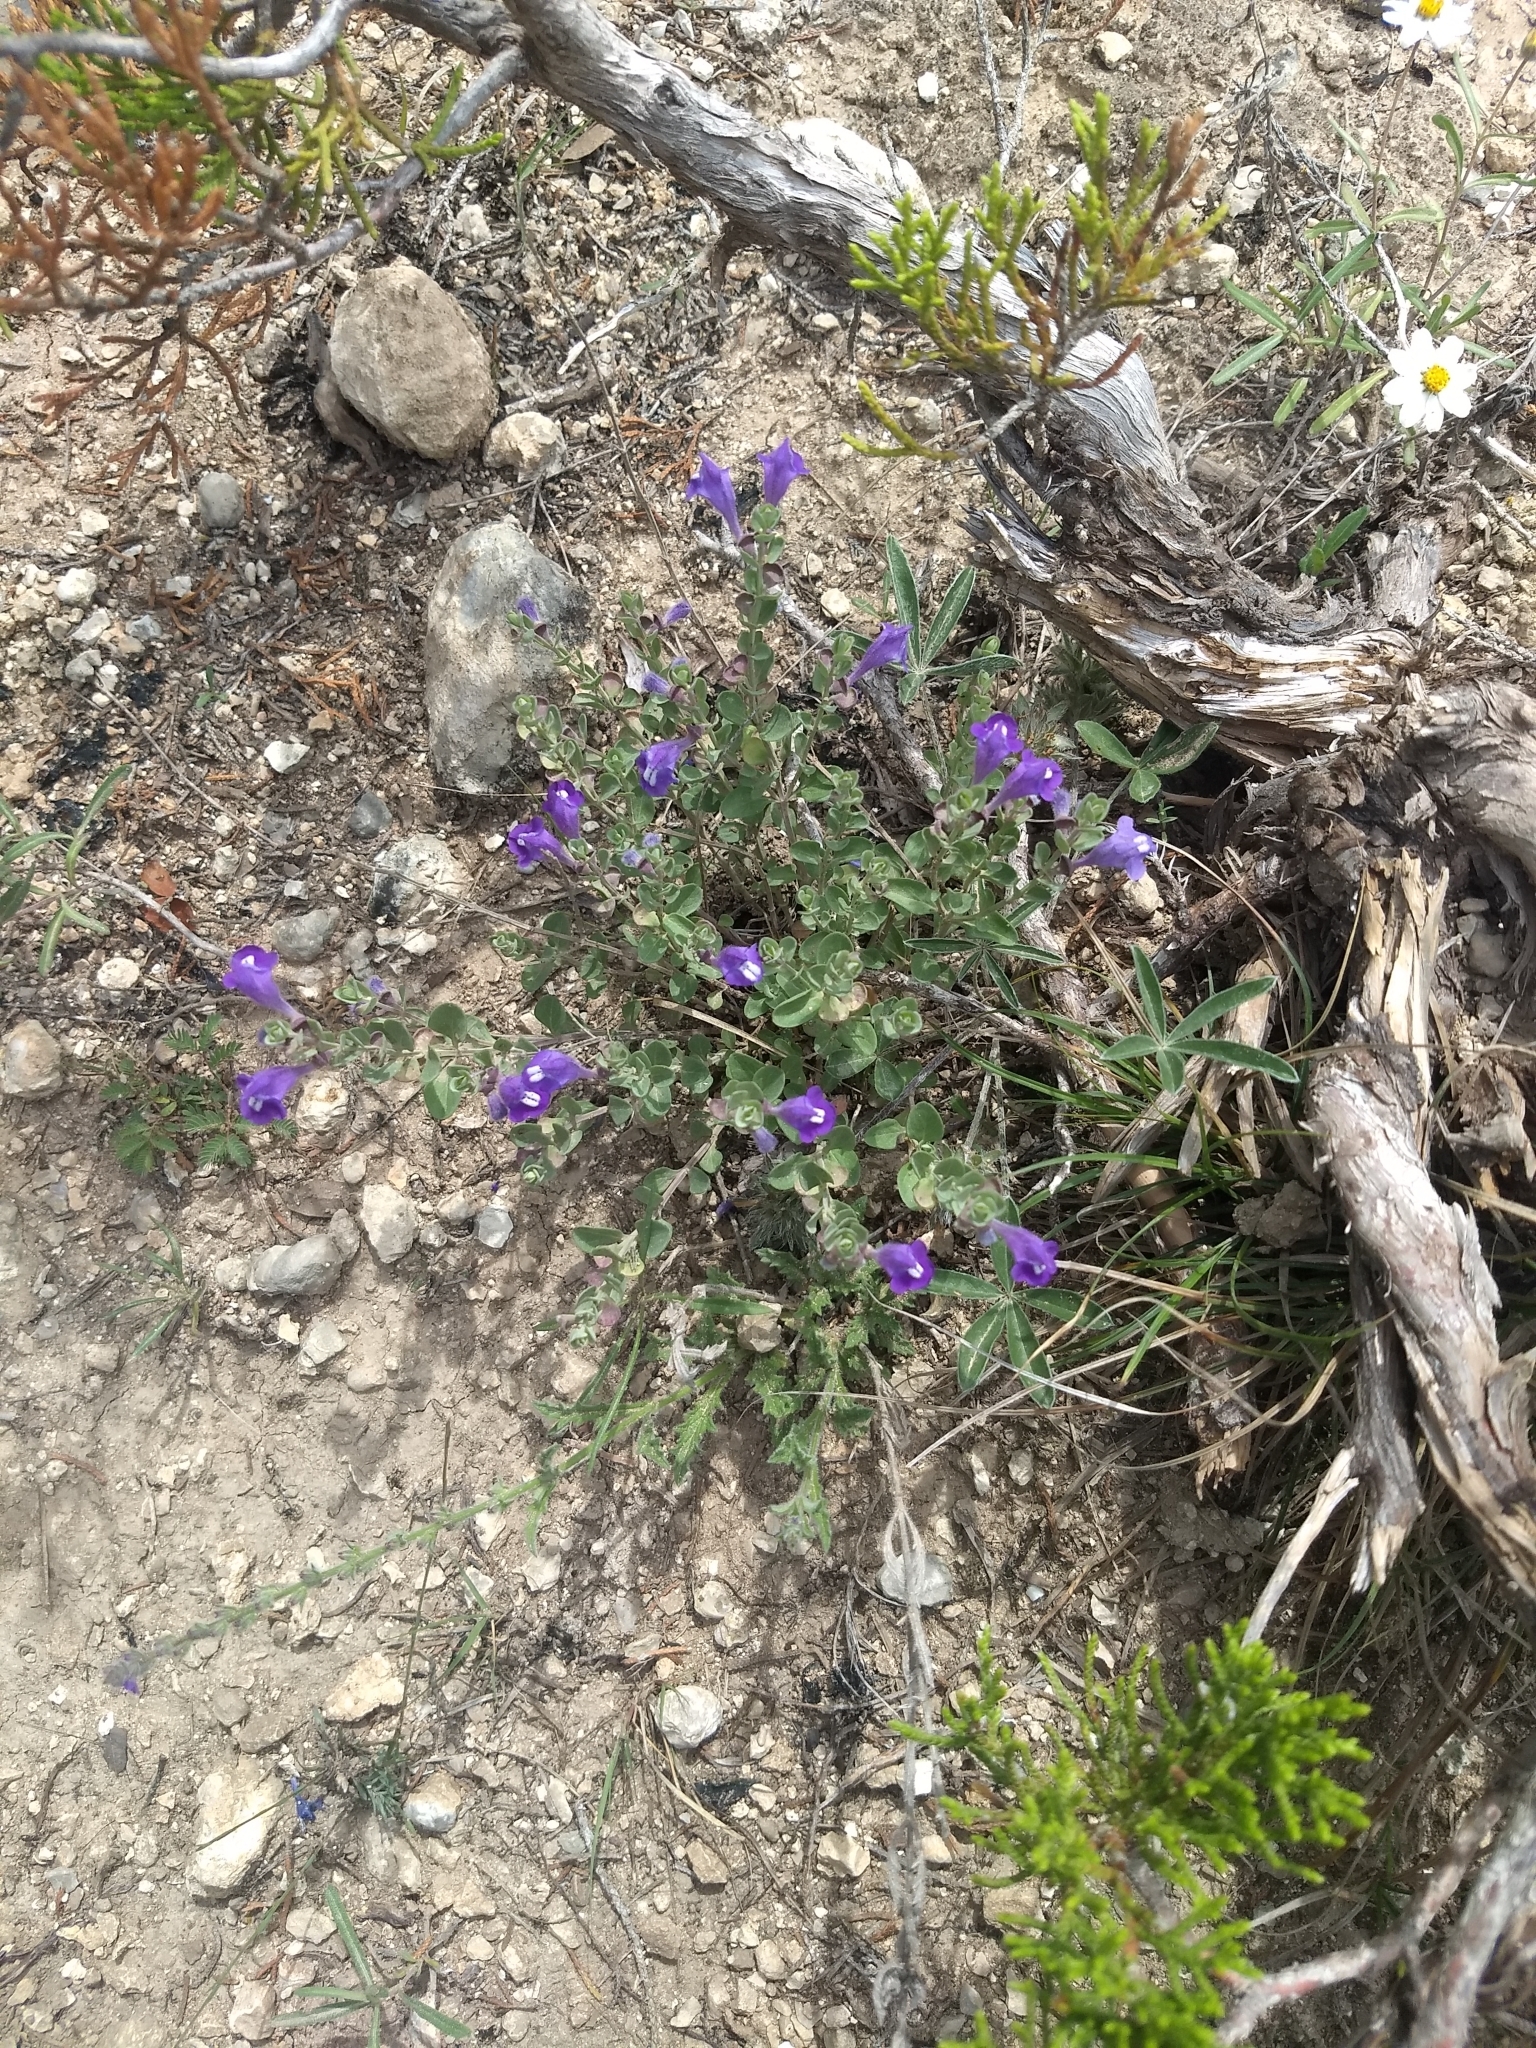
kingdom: Plantae
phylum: Tracheophyta
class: Magnoliopsida
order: Lamiales
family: Lamiaceae
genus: Scutellaria
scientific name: Scutellaria wrightii
